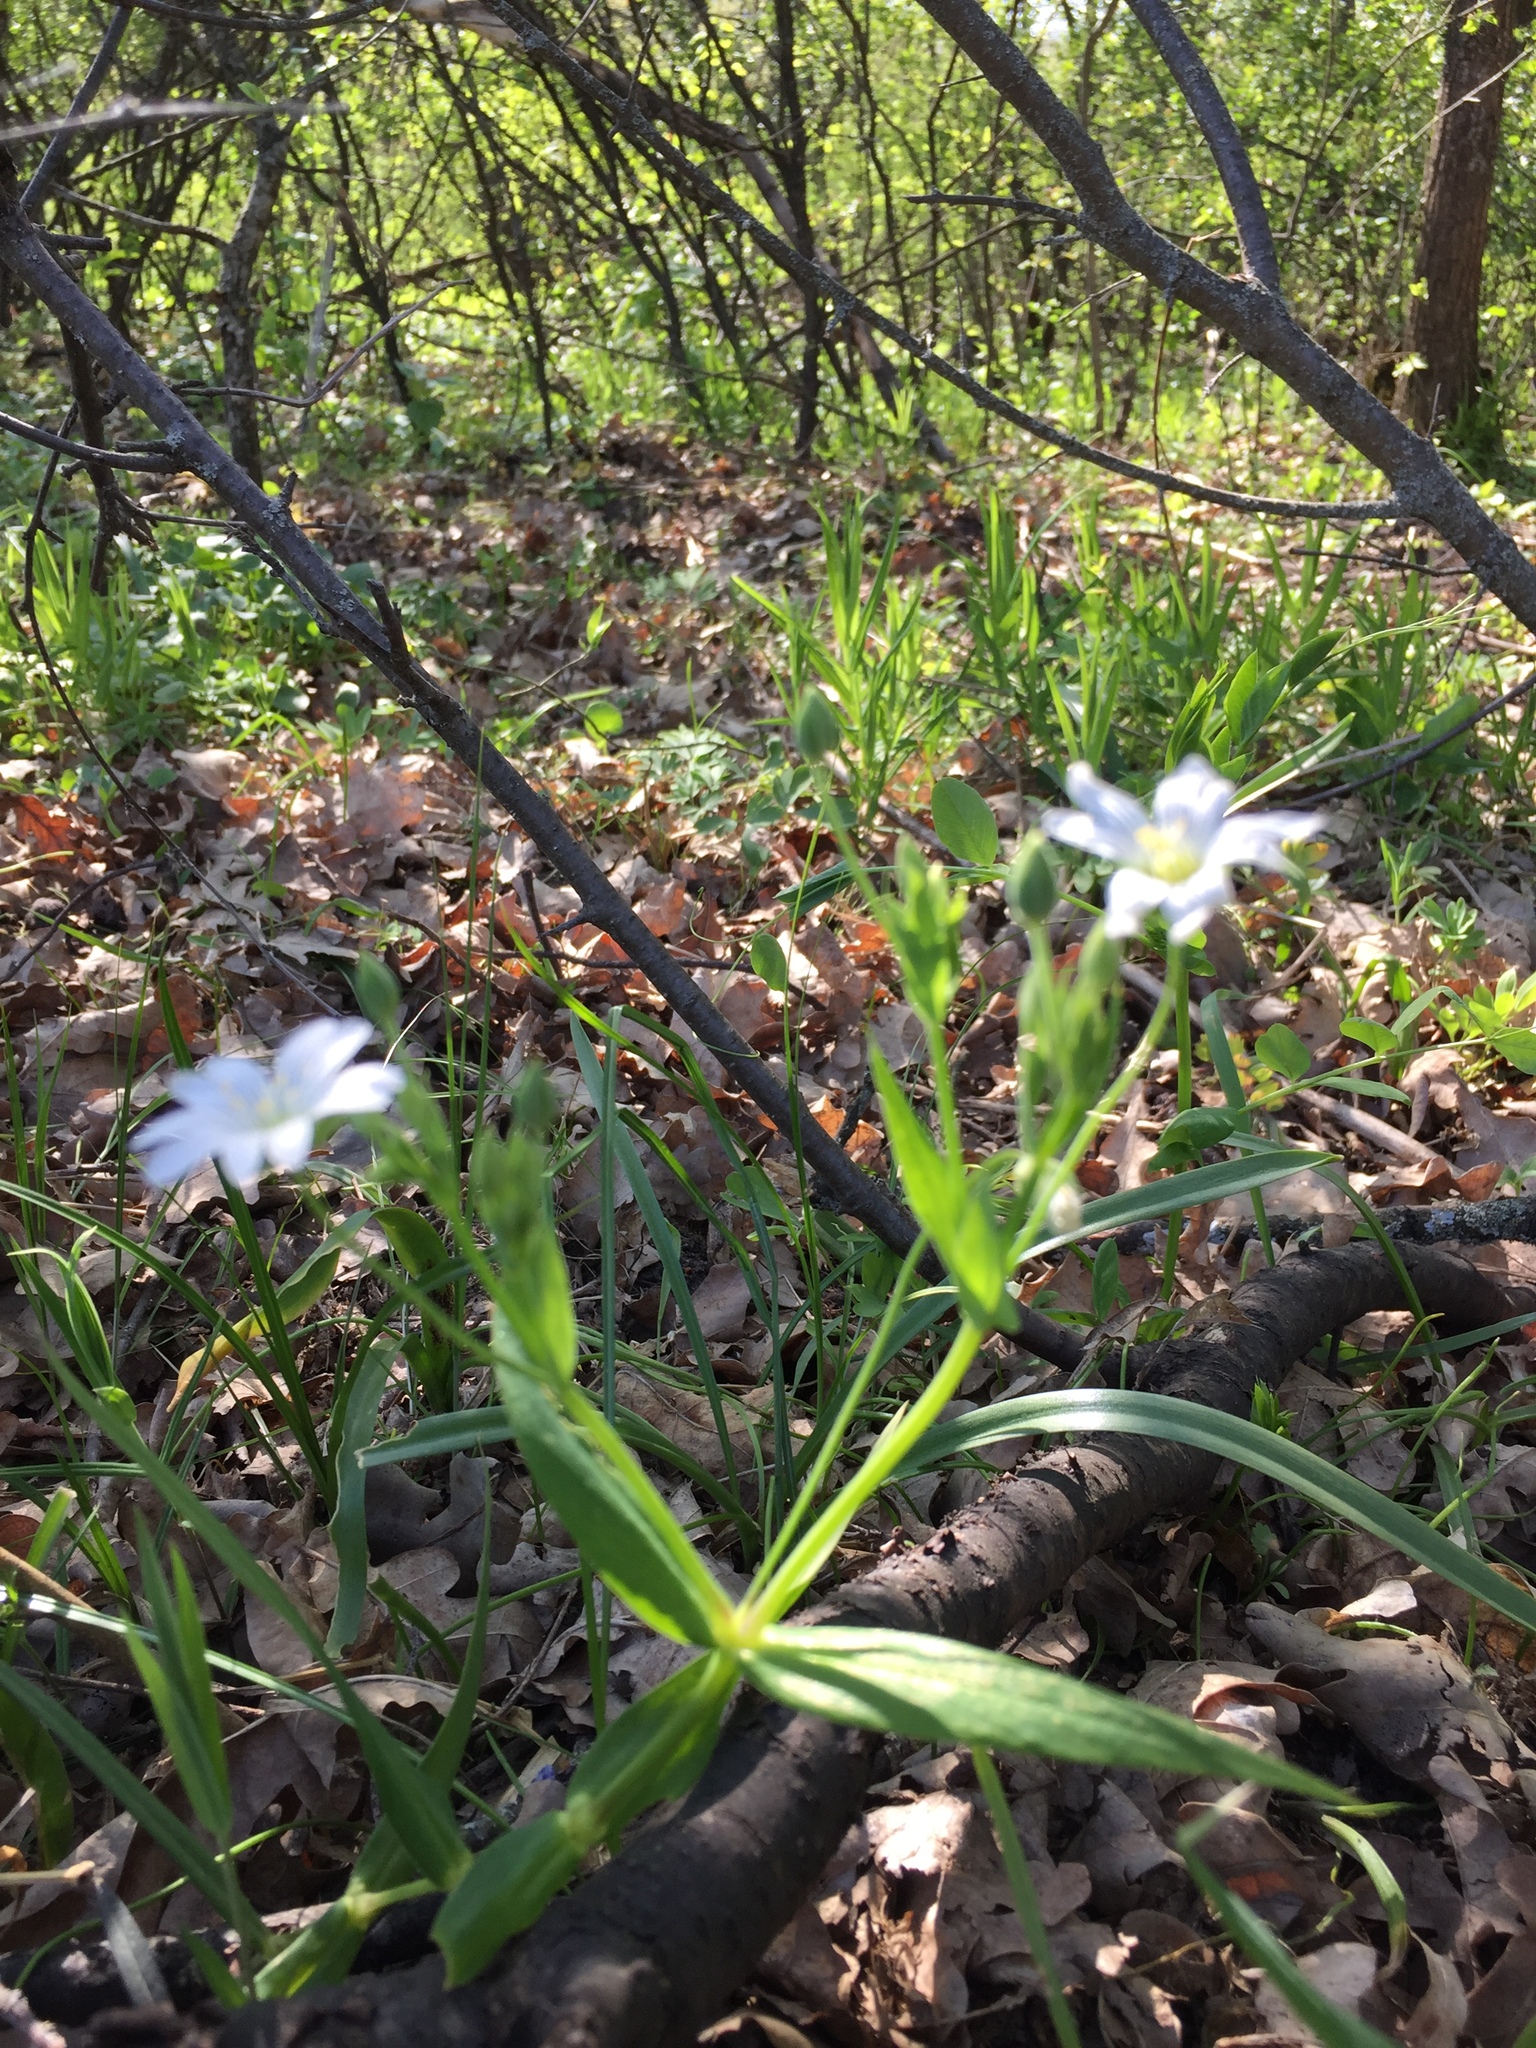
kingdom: Plantae
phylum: Tracheophyta
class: Magnoliopsida
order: Caryophyllales
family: Caryophyllaceae
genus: Rabelera
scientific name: Rabelera holostea
